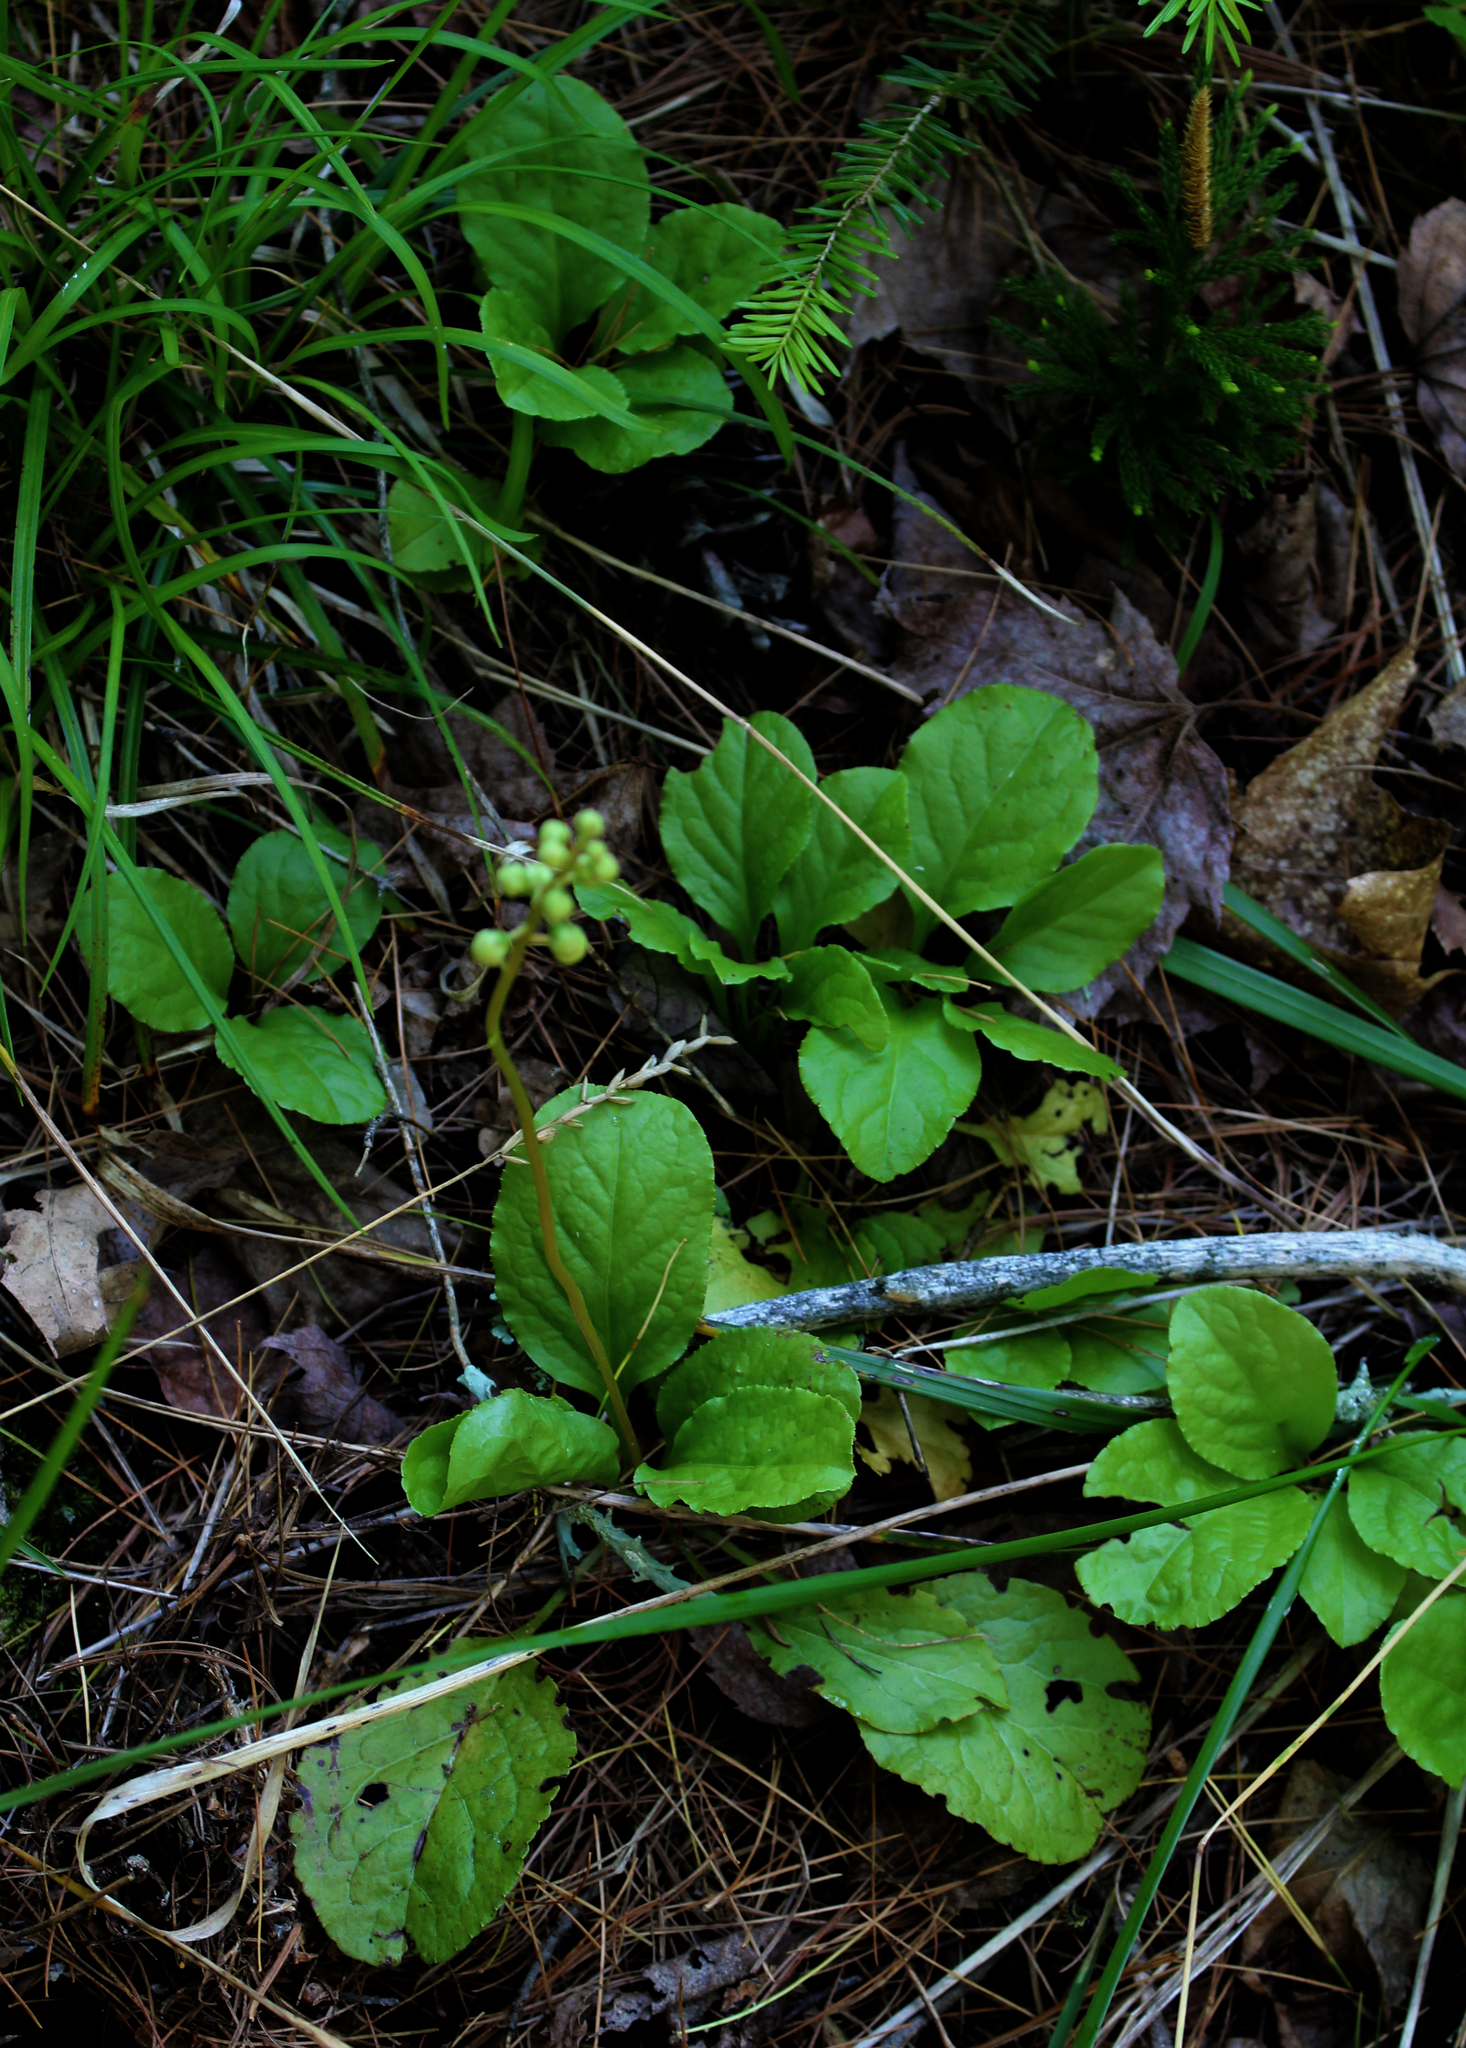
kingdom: Plantae
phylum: Tracheophyta
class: Magnoliopsida
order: Ericales
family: Ericaceae
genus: Pyrola
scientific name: Pyrola elliptica
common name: Shinleaf
